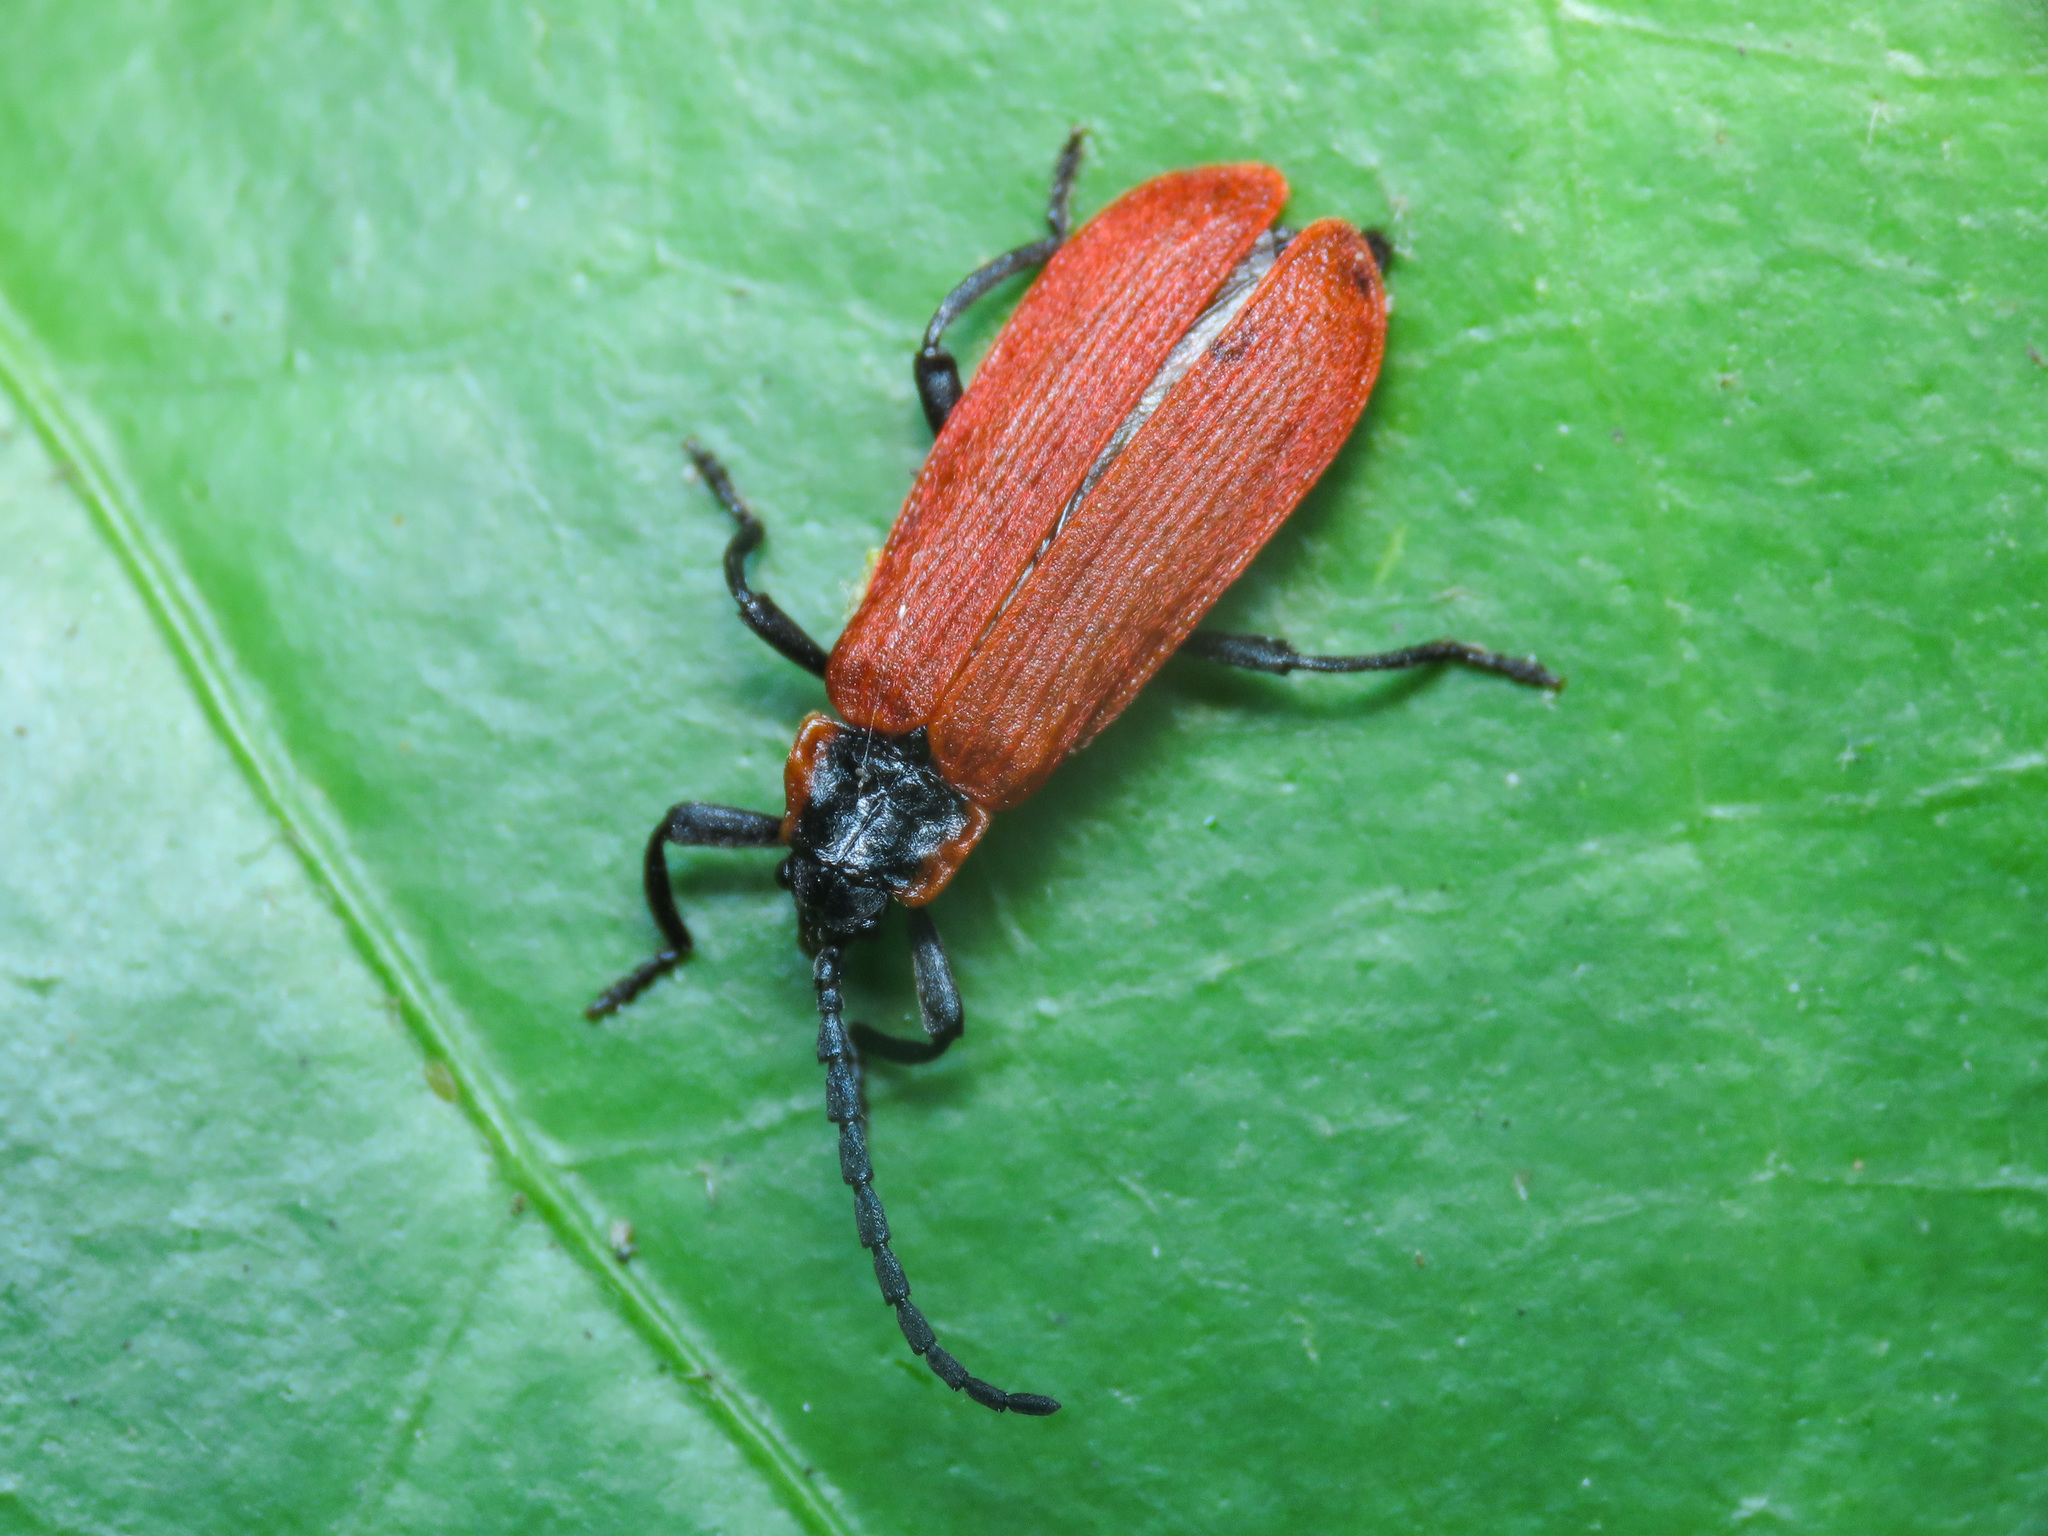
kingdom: Animalia
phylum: Arthropoda
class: Insecta
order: Coleoptera
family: Lycidae
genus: Lygistopterus
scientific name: Lygistopterus anorachilus
